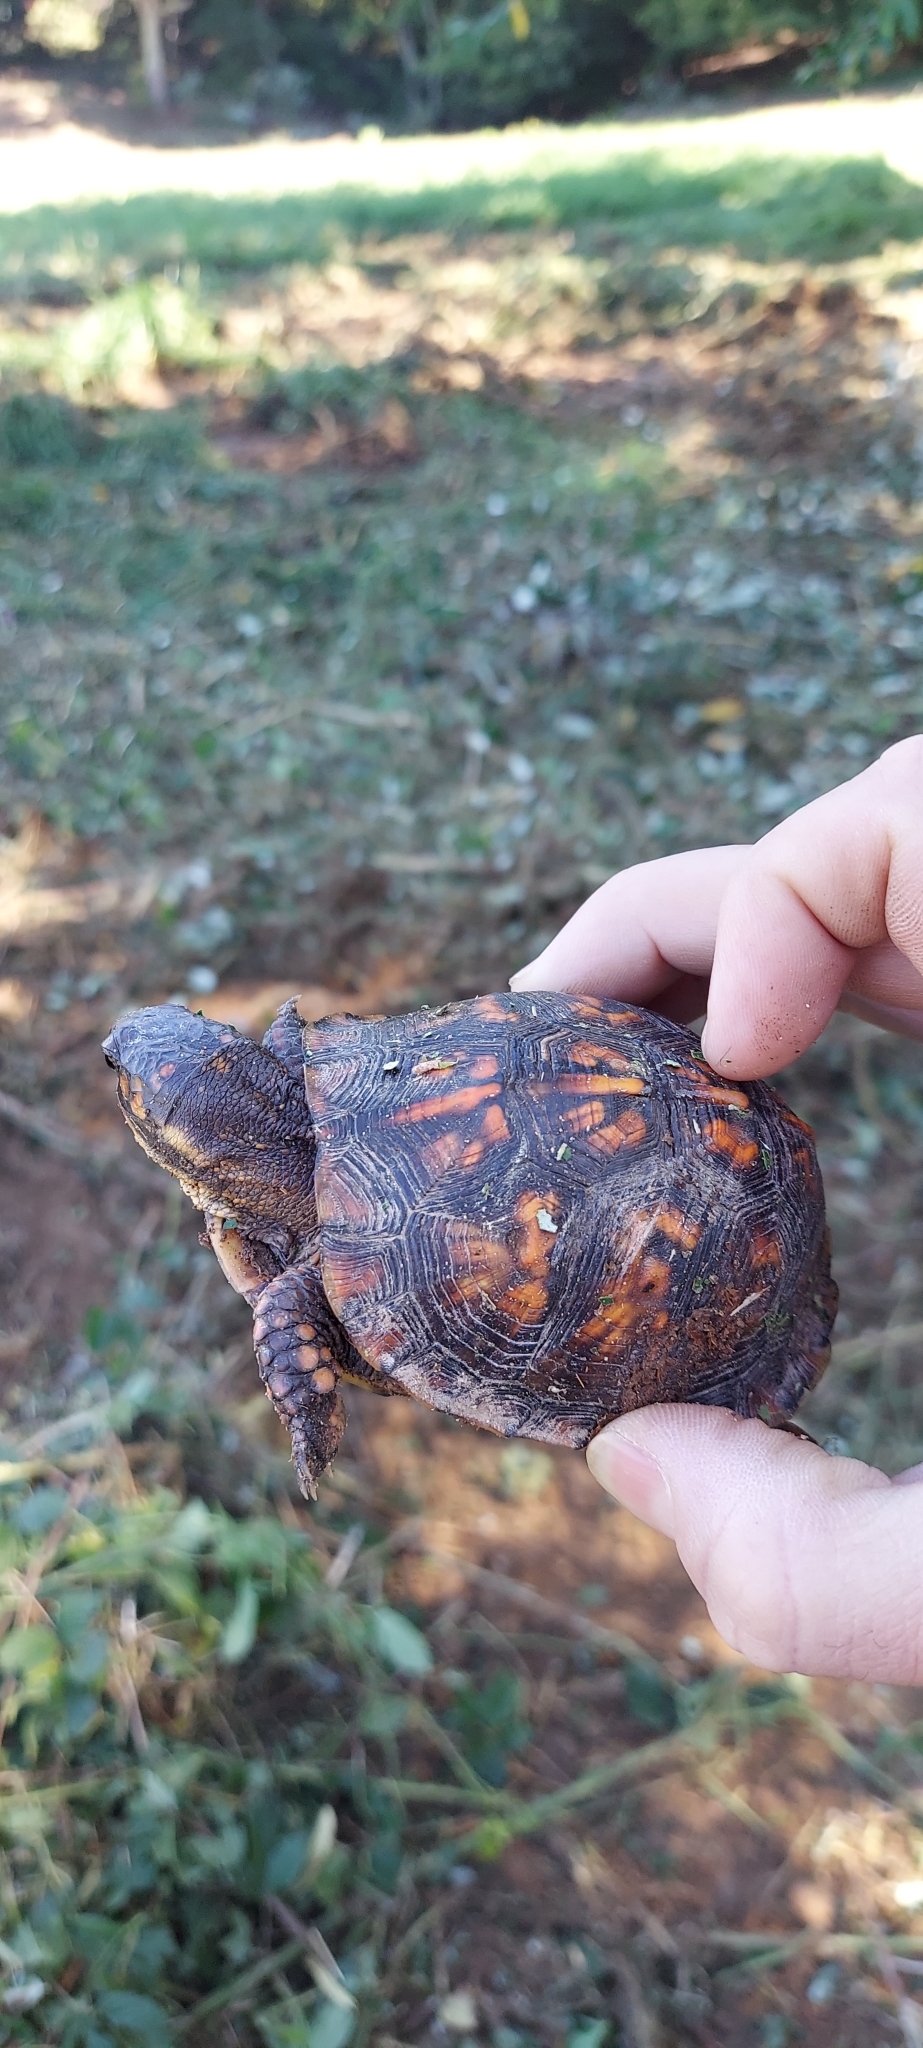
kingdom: Animalia
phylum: Chordata
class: Testudines
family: Emydidae
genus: Terrapene
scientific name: Terrapene carolina
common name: Common box turtle
